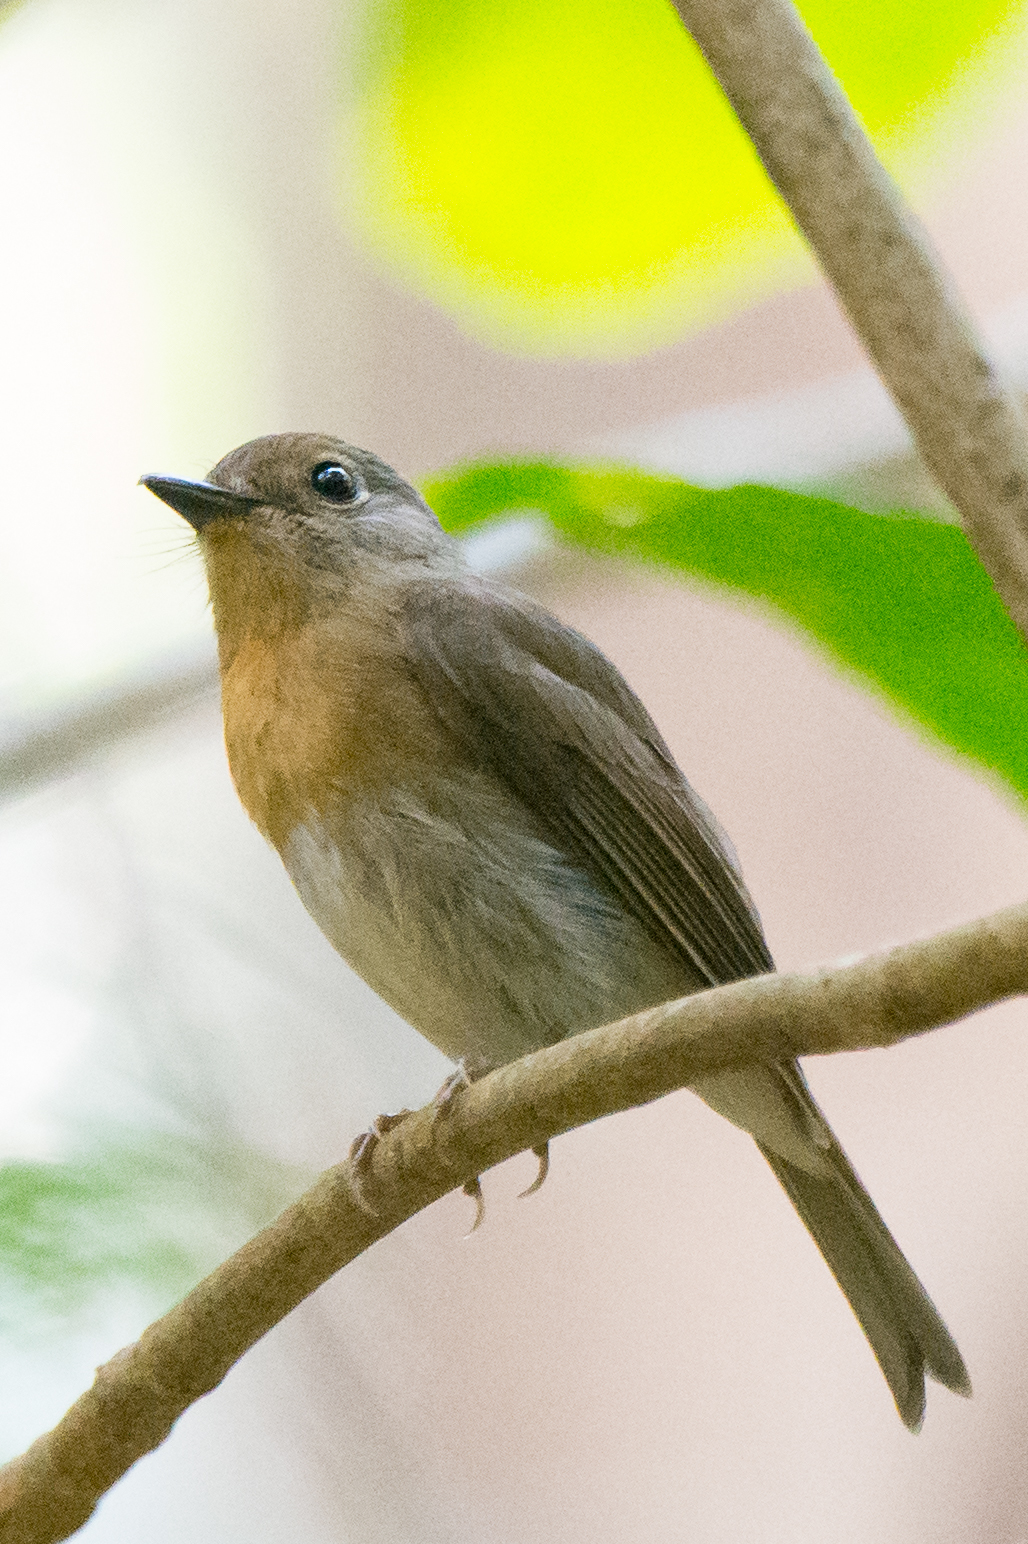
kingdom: Animalia
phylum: Chordata
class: Aves
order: Passeriformes
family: Muscicapidae
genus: Cyornis
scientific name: Cyornis hainanus
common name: Hainan blue flycatcher
